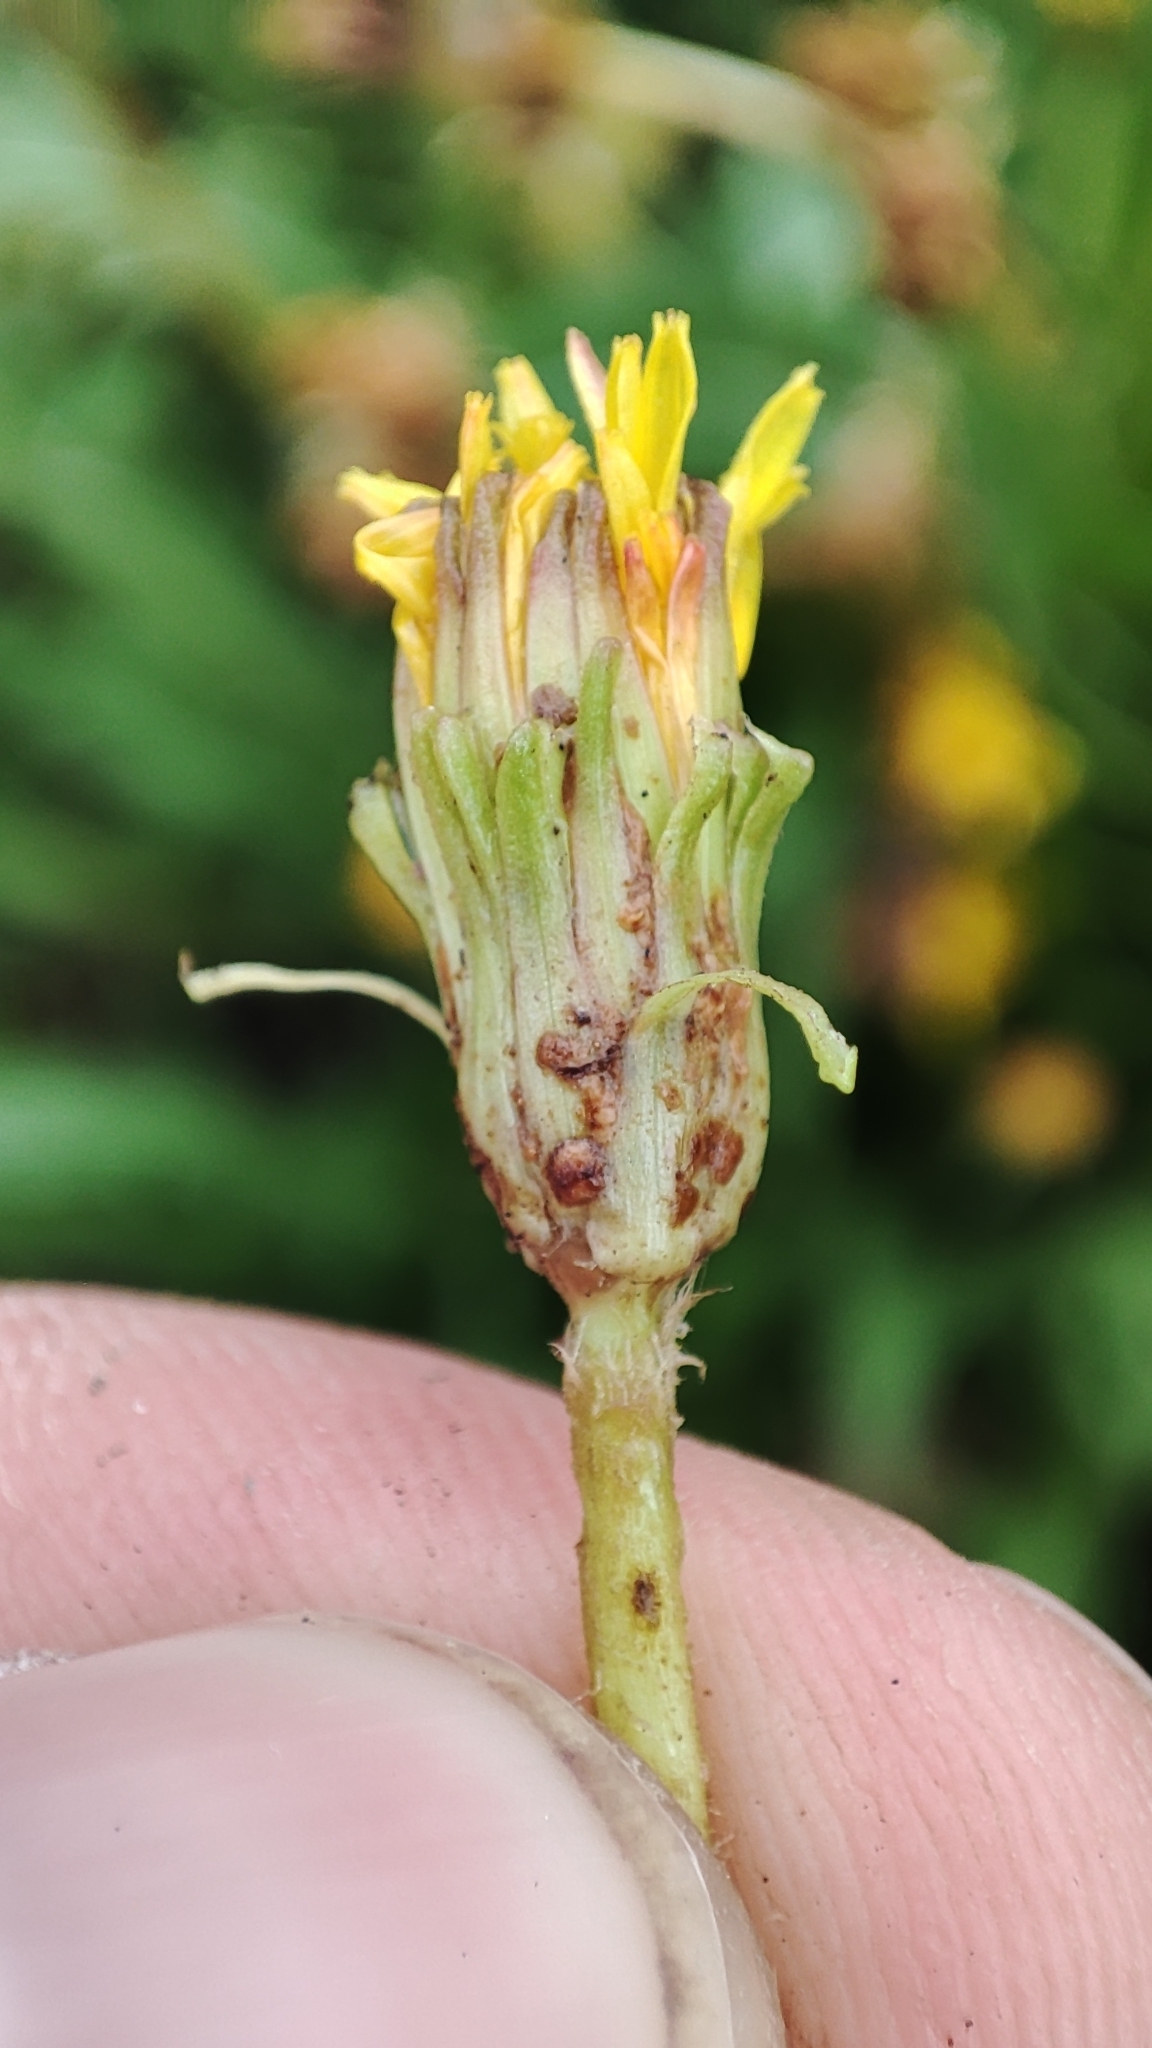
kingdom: Plantae
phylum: Tracheophyta
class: Magnoliopsida
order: Asterales
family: Asteraceae
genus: Taraxacum
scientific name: Taraxacum scariosum
